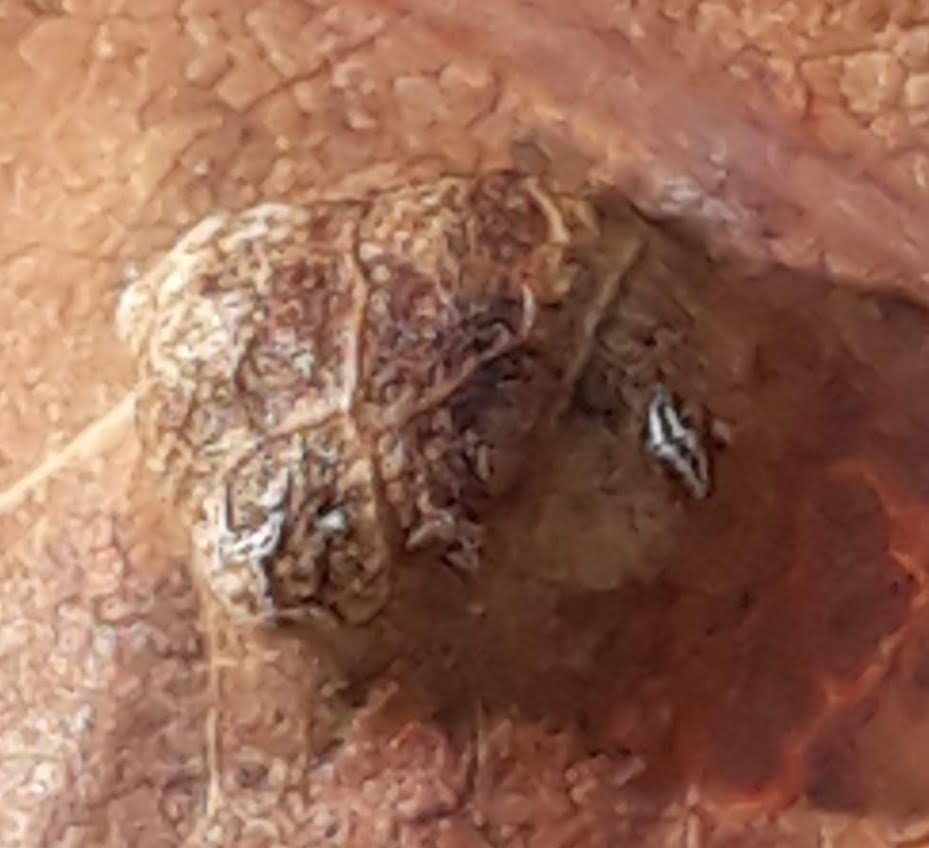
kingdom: Animalia
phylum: Arthropoda
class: Arachnida
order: Trombidiformes
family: Eriophyidae
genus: Aceria
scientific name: Aceria
